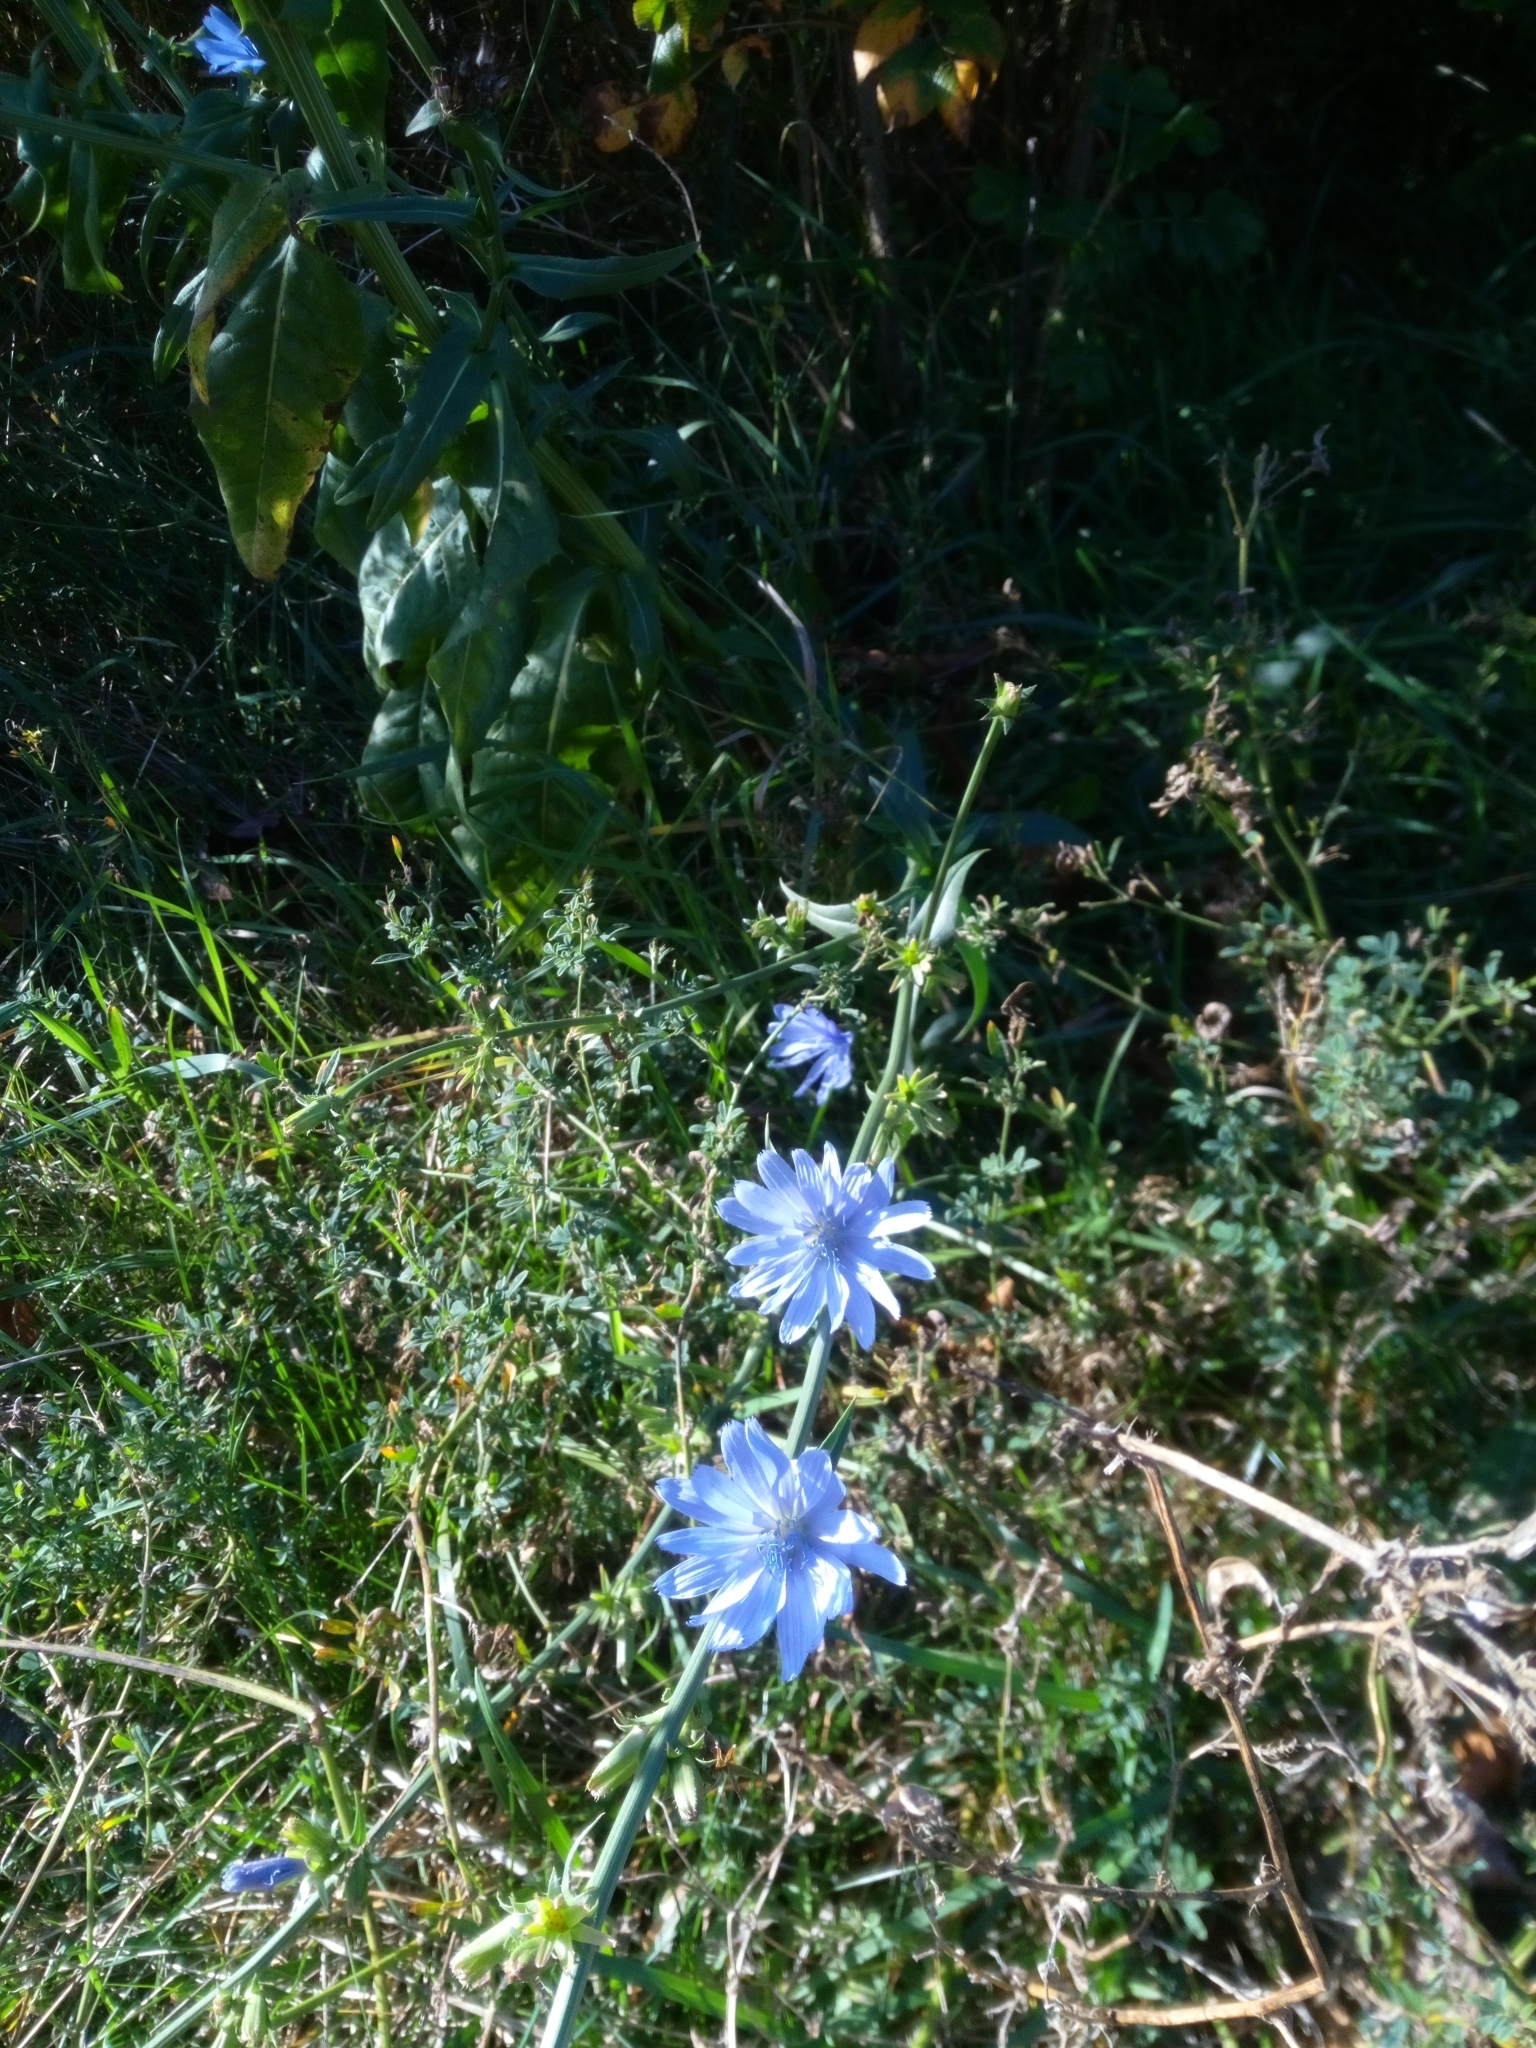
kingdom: Plantae
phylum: Tracheophyta
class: Magnoliopsida
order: Asterales
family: Asteraceae
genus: Cichorium
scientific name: Cichorium intybus
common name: Chicory
